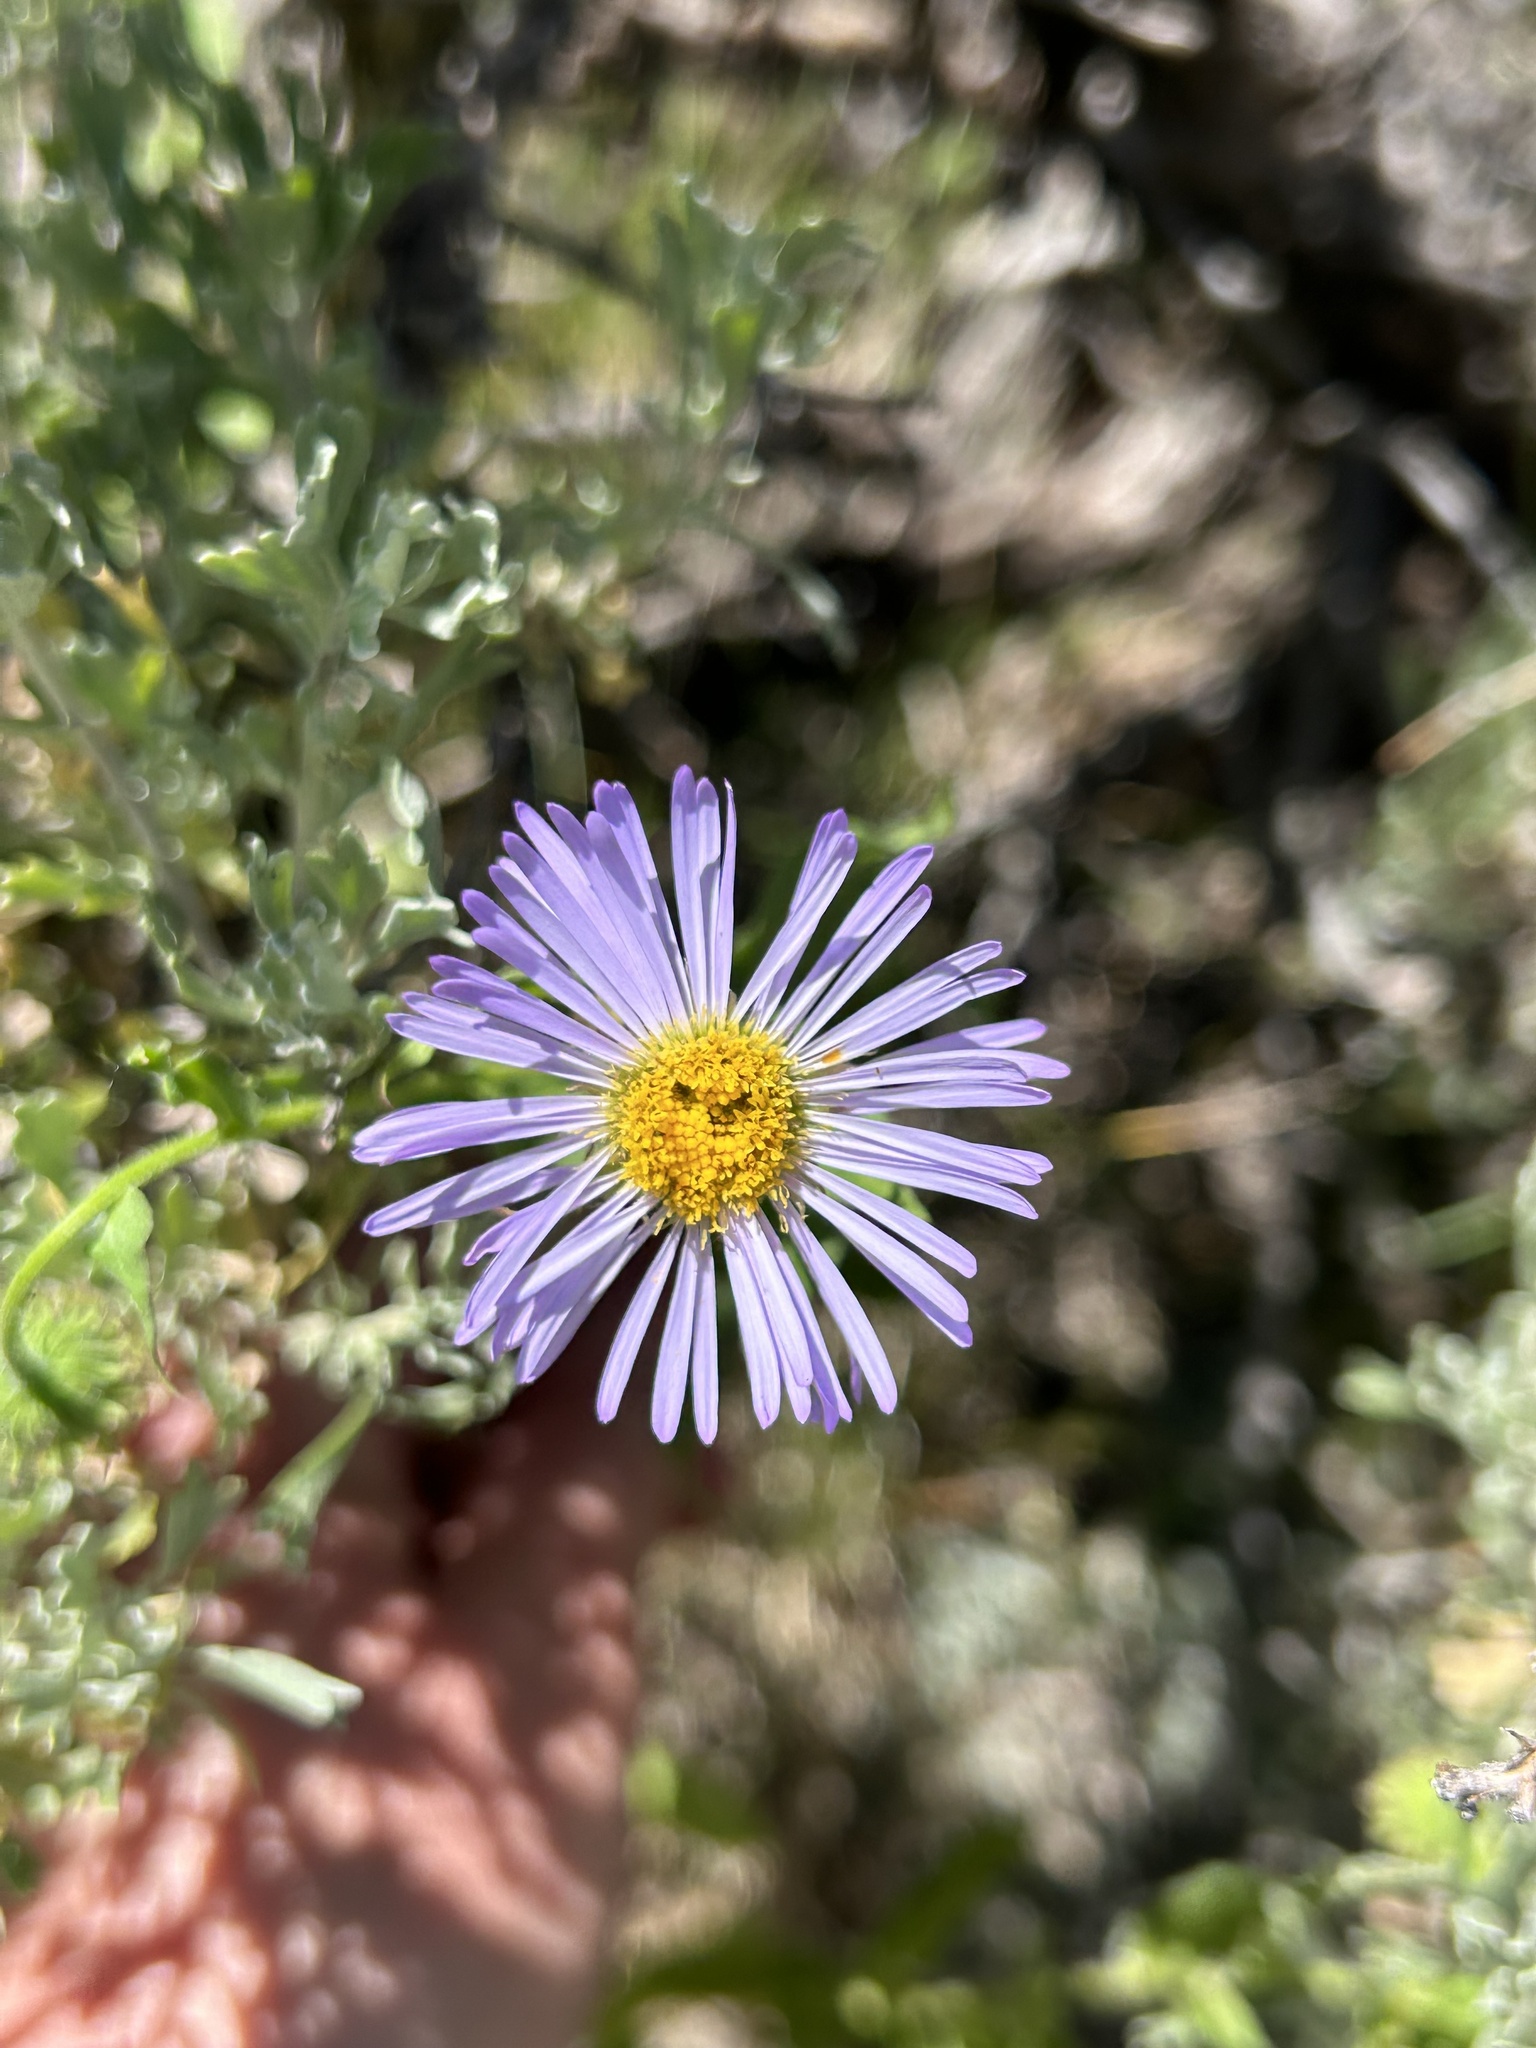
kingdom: Plantae
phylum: Tracheophyta
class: Magnoliopsida
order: Asterales
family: Asteraceae
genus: Erigeron
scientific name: Erigeron speciosus
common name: Aspen fleabane
